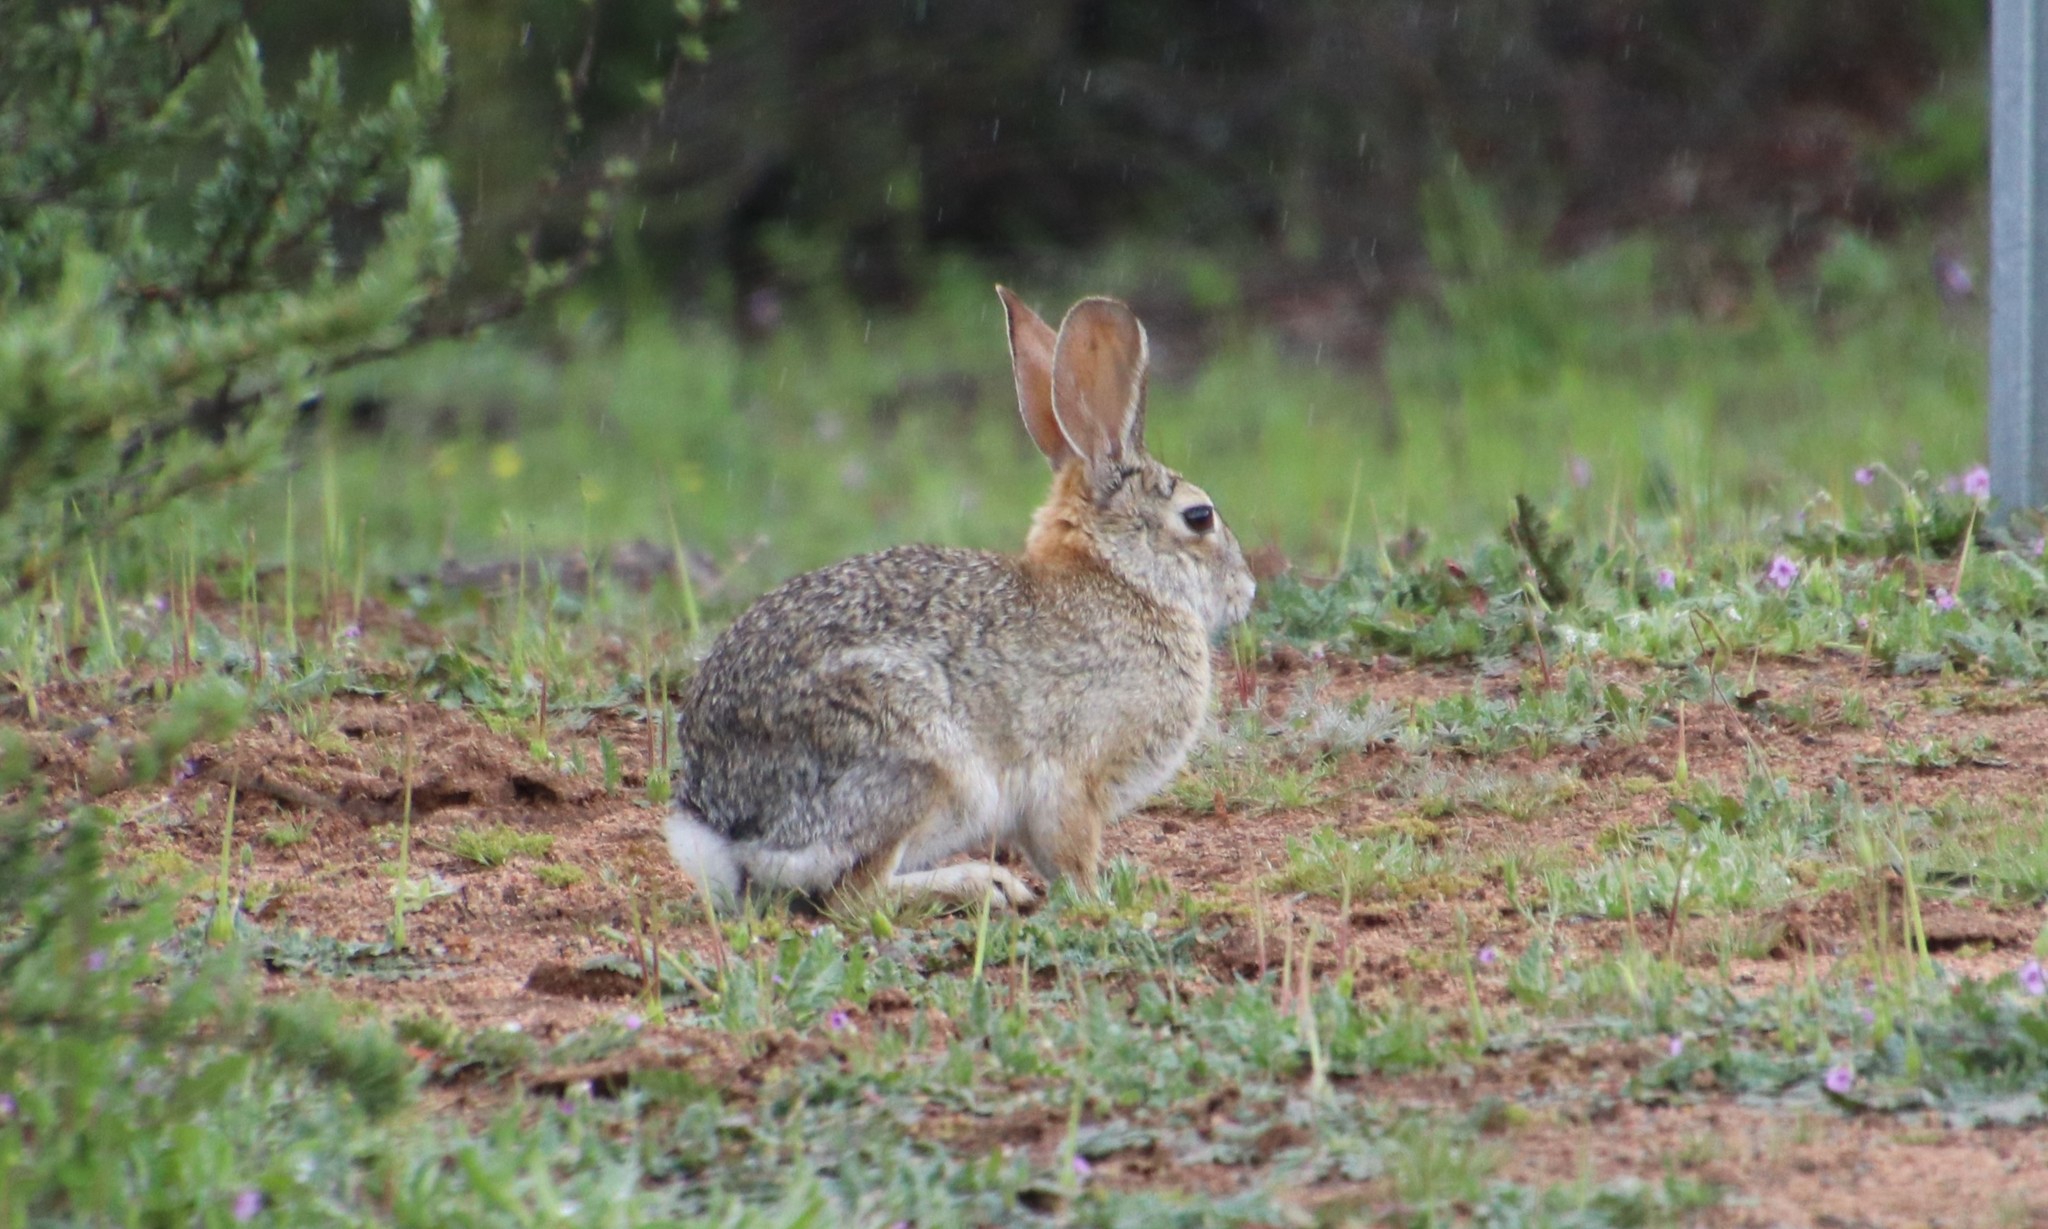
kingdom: Animalia
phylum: Chordata
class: Mammalia
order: Lagomorpha
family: Leporidae
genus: Sylvilagus
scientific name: Sylvilagus audubonii
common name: Desert cottontail
